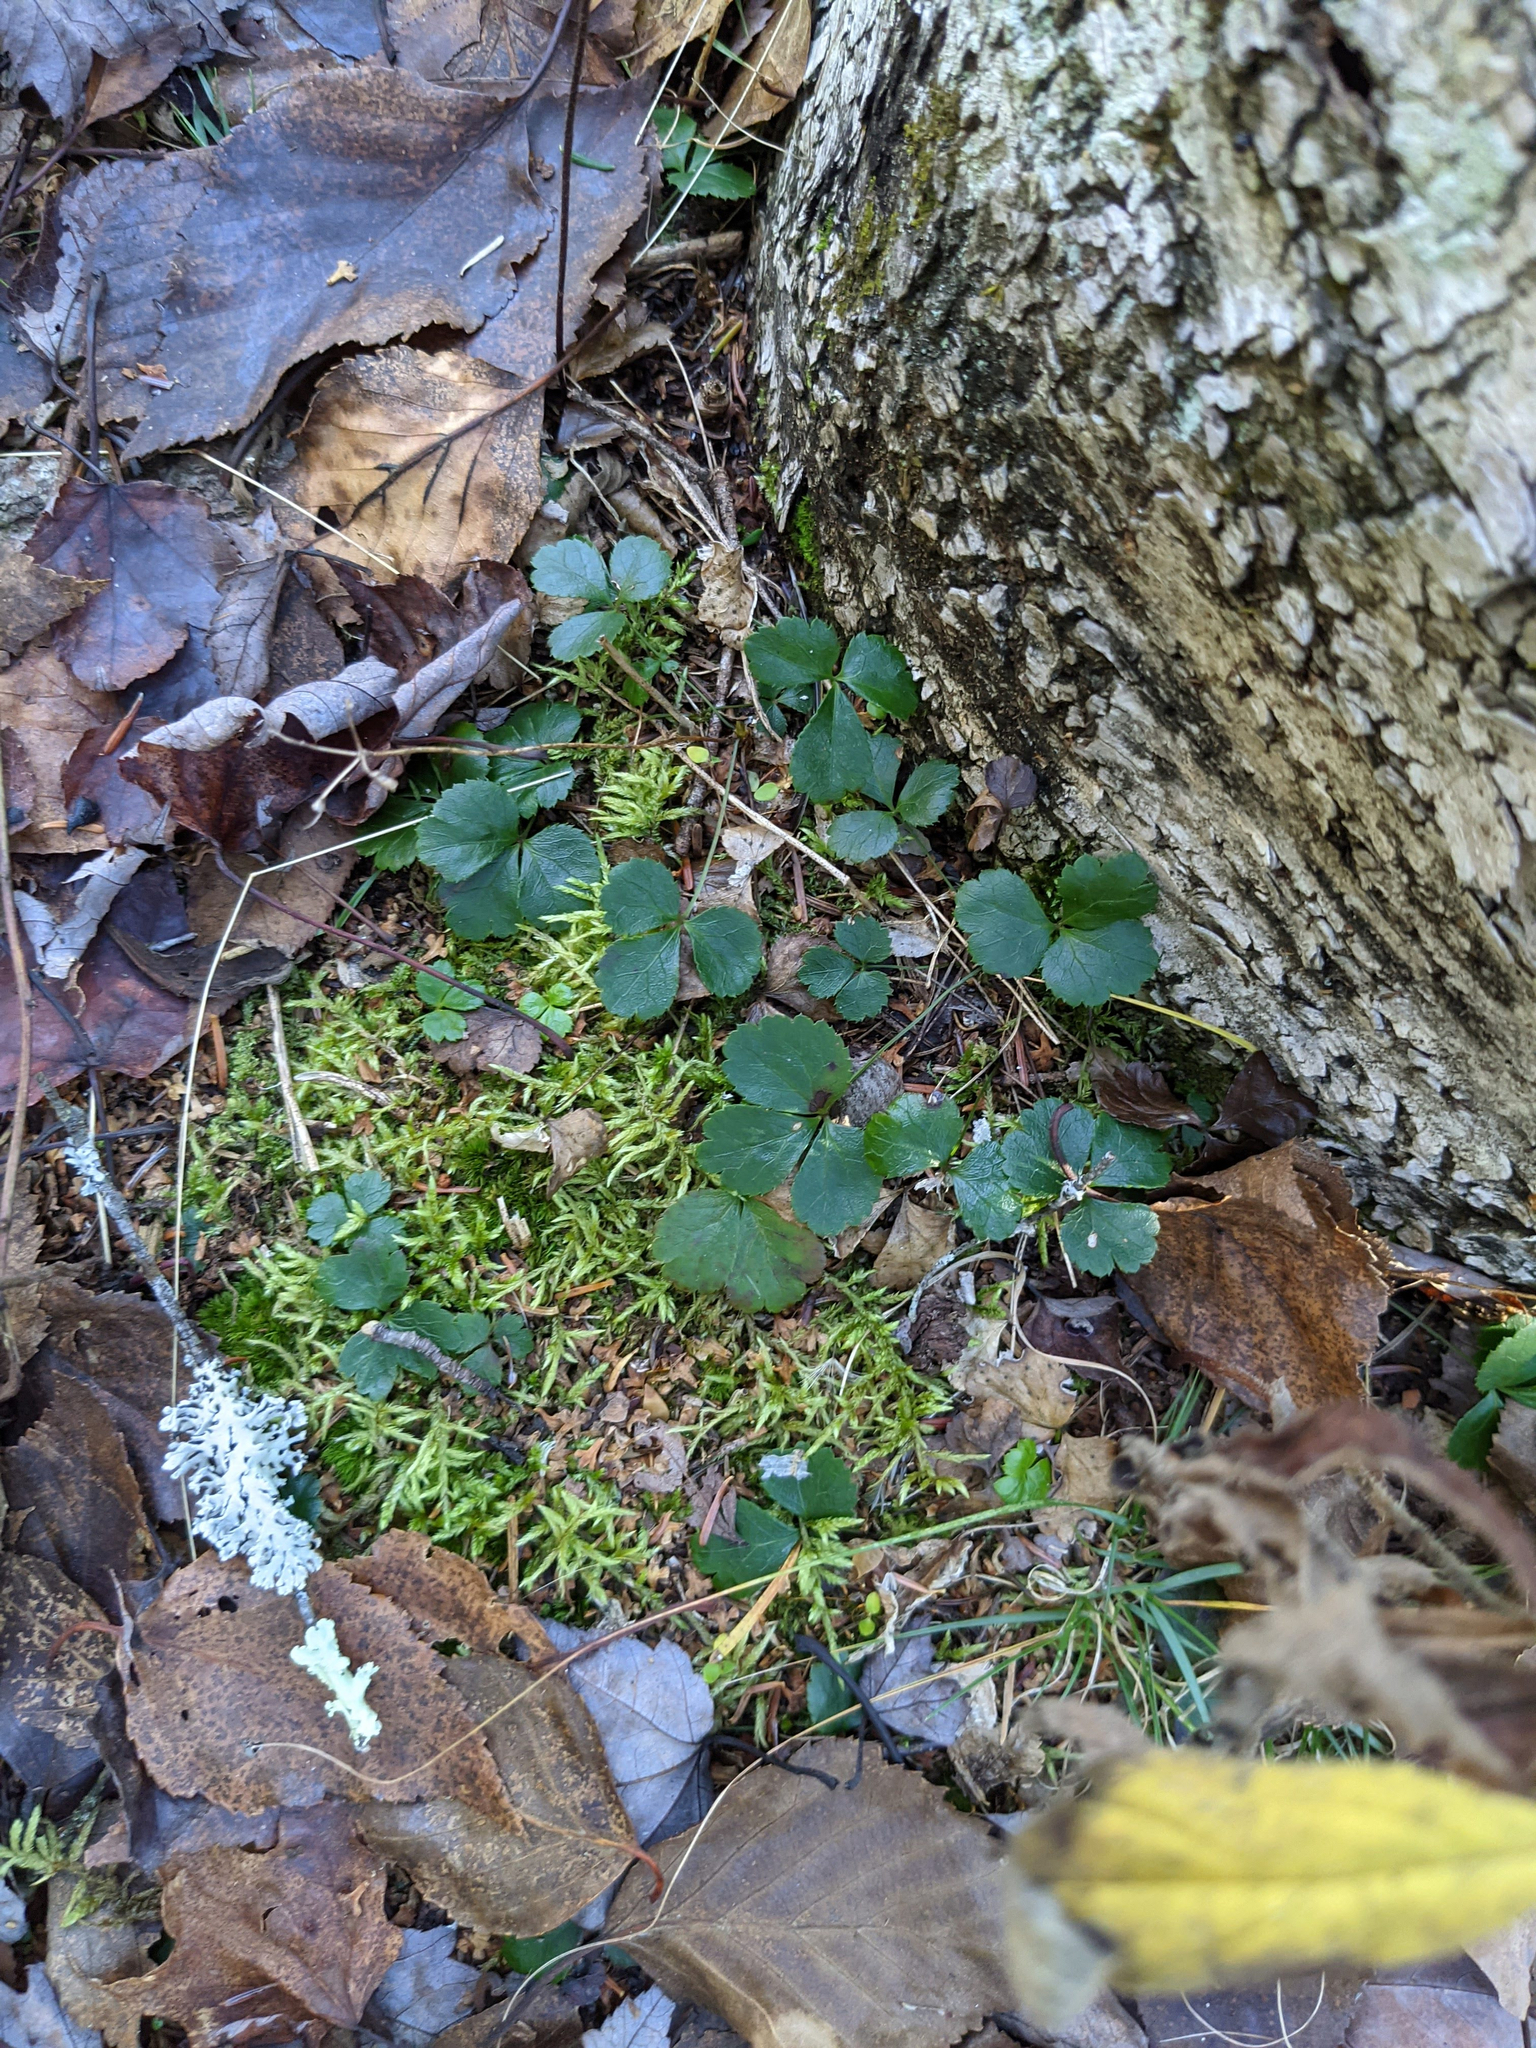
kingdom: Plantae
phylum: Tracheophyta
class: Magnoliopsida
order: Ranunculales
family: Ranunculaceae
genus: Coptis
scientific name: Coptis trifolia
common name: Canker-root
